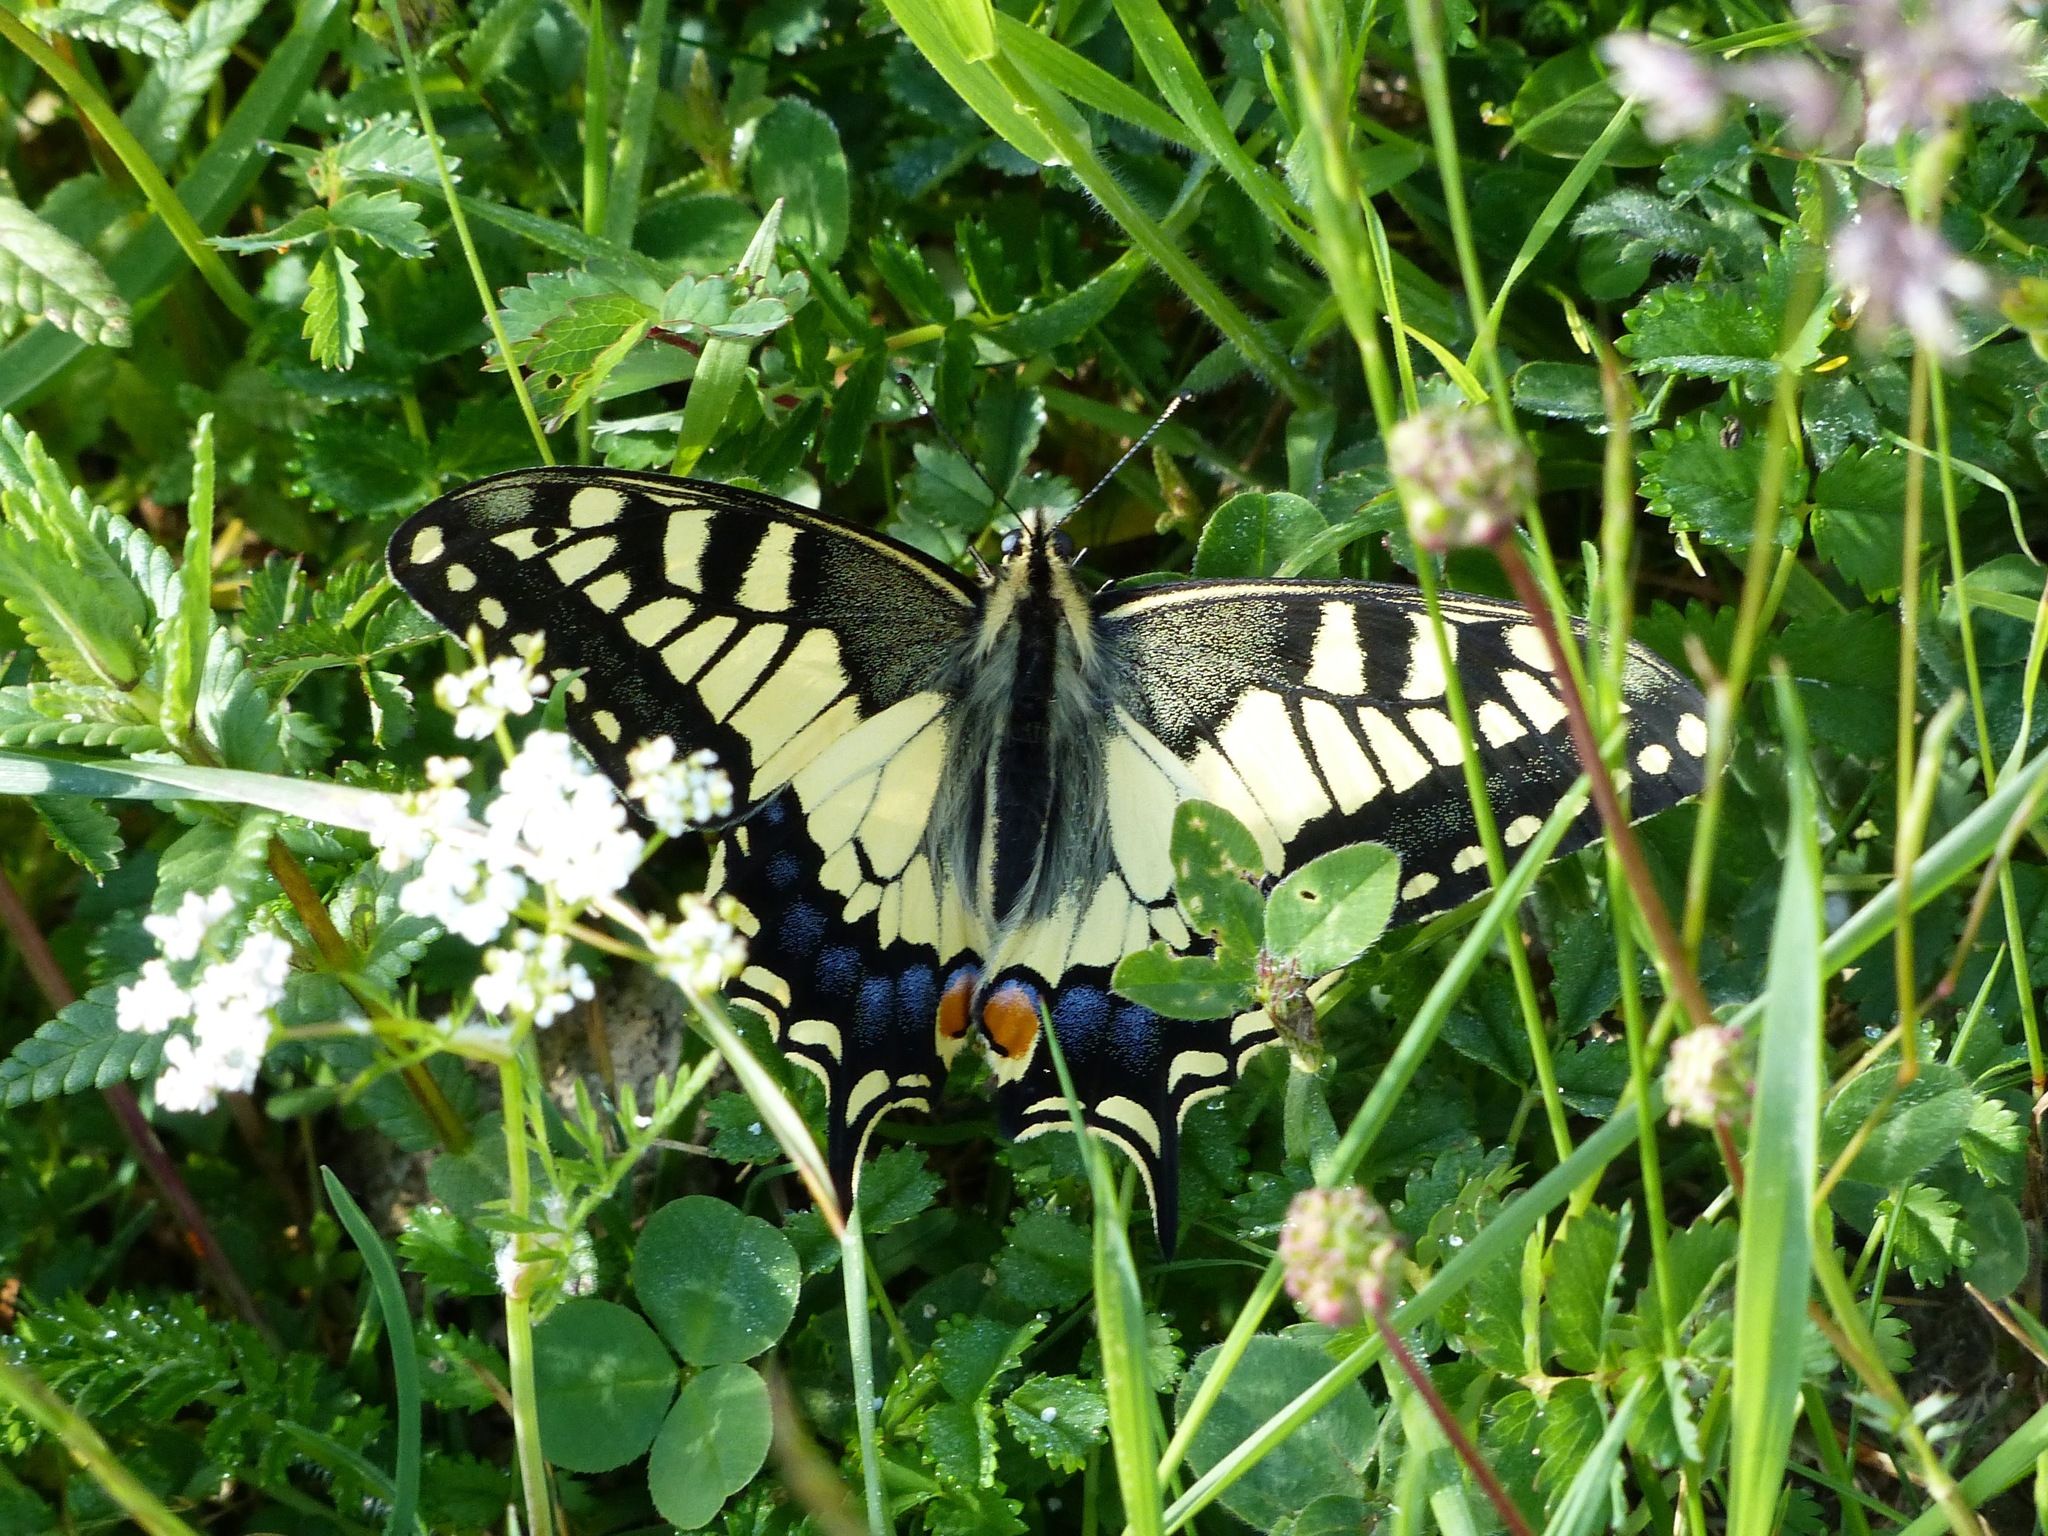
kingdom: Animalia
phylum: Arthropoda
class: Insecta
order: Lepidoptera
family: Papilionidae
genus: Papilio
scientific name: Papilio machaon
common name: Swallowtail
